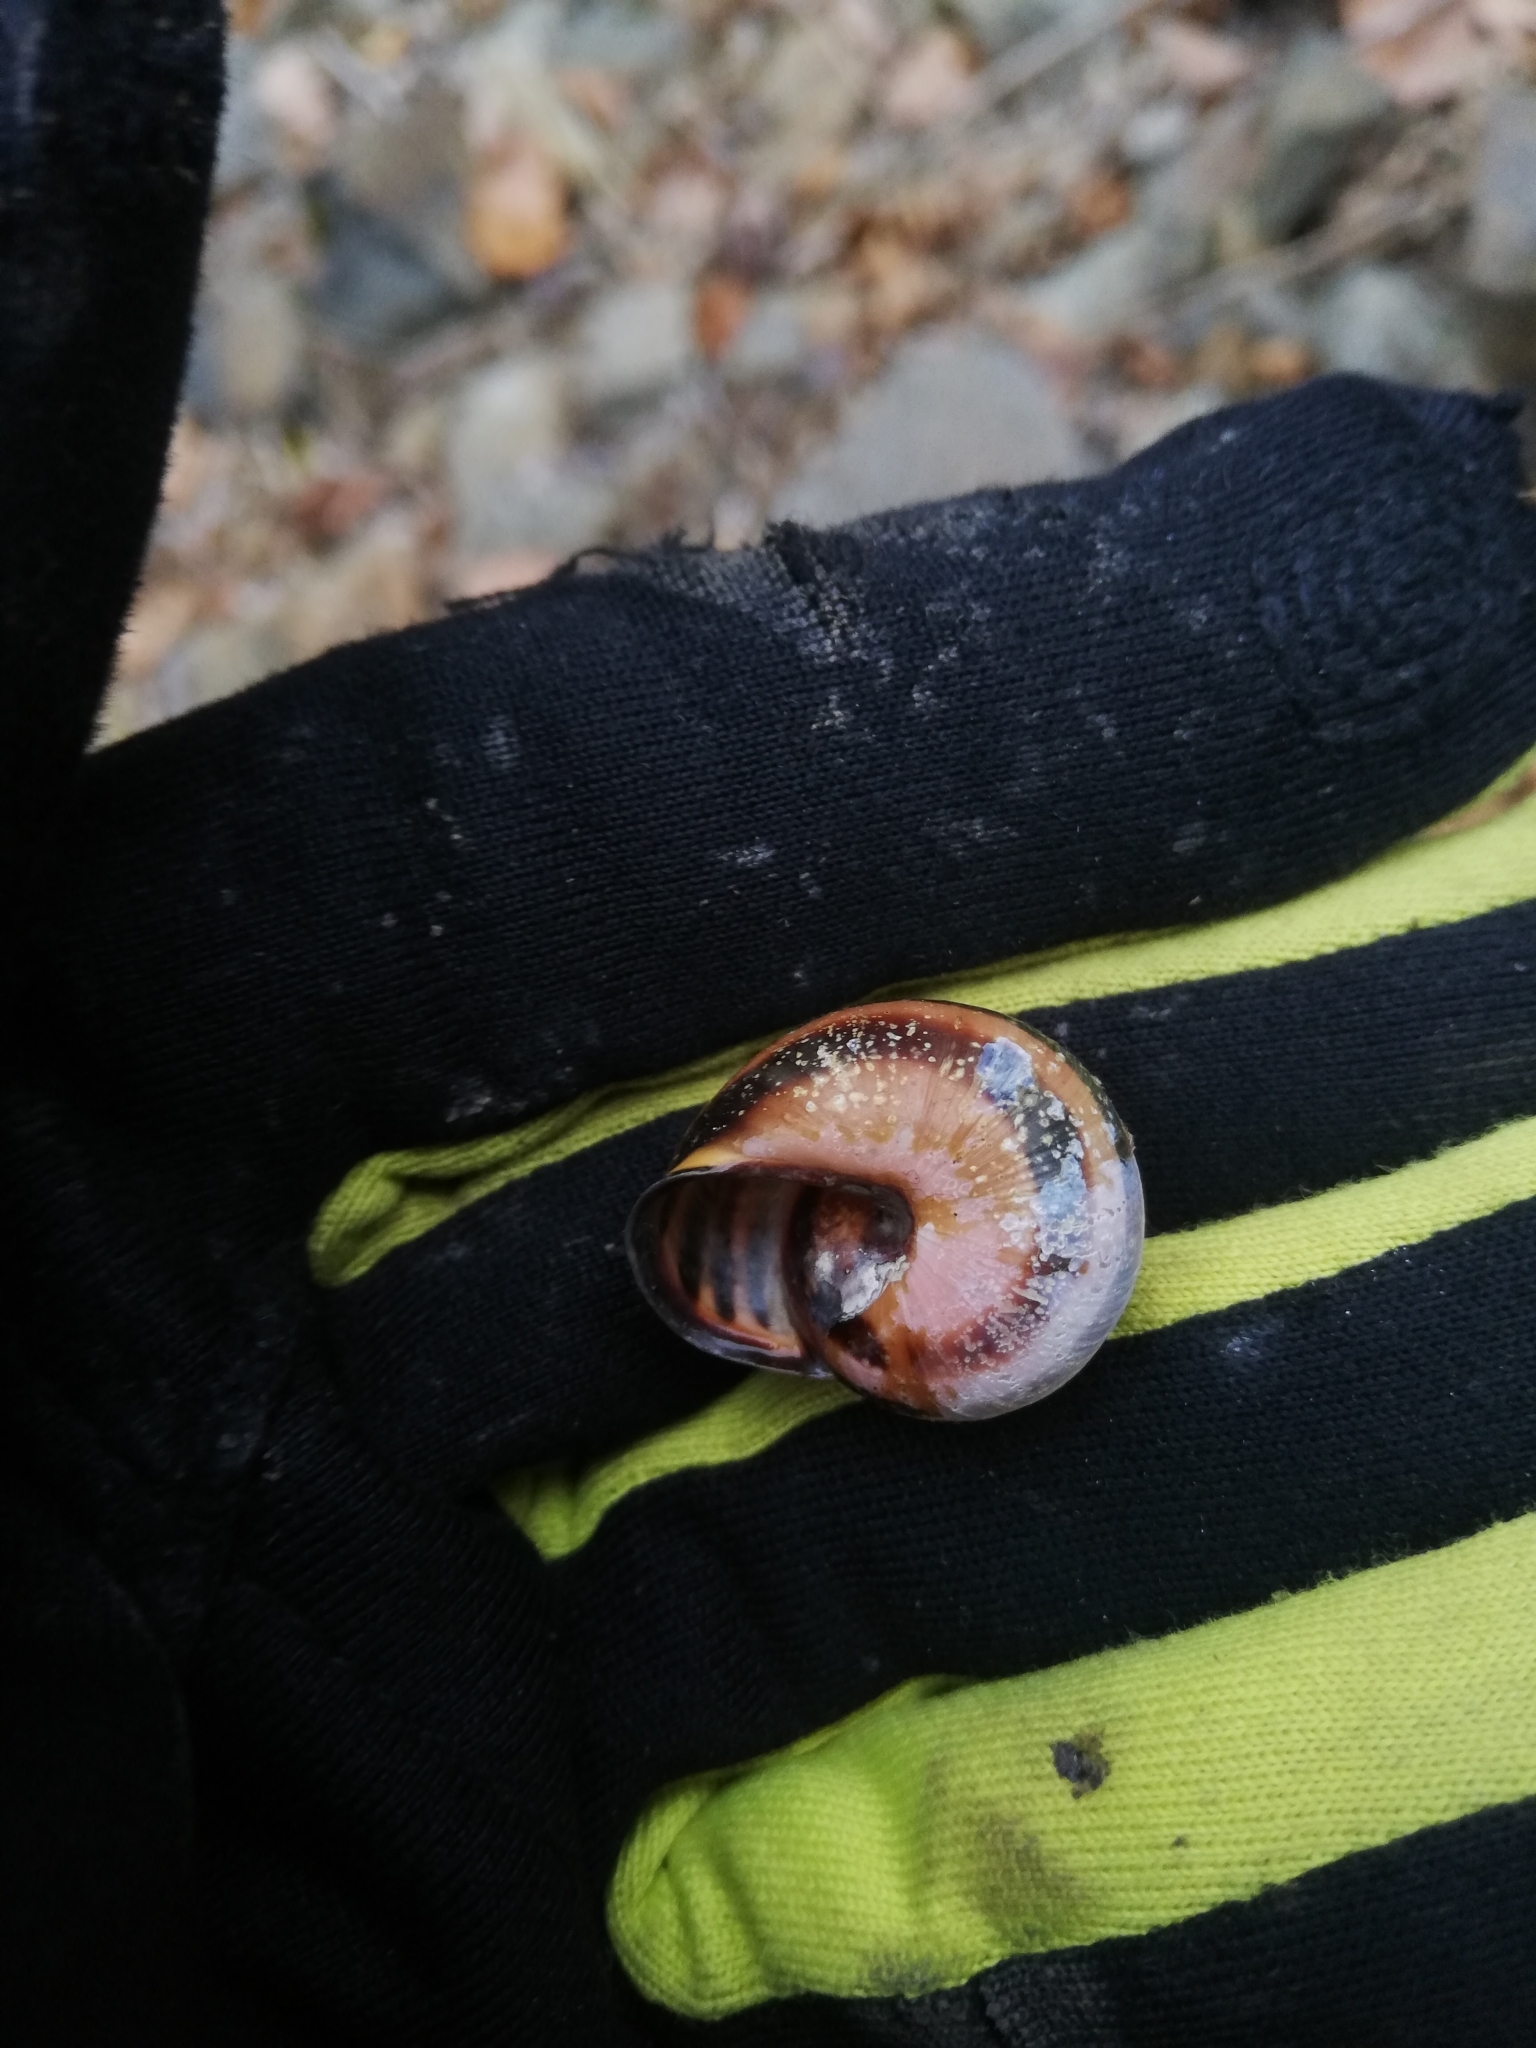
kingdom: Animalia
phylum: Mollusca
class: Gastropoda
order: Stylommatophora
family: Helicidae
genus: Cepaea
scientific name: Cepaea nemoralis
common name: Grovesnail
